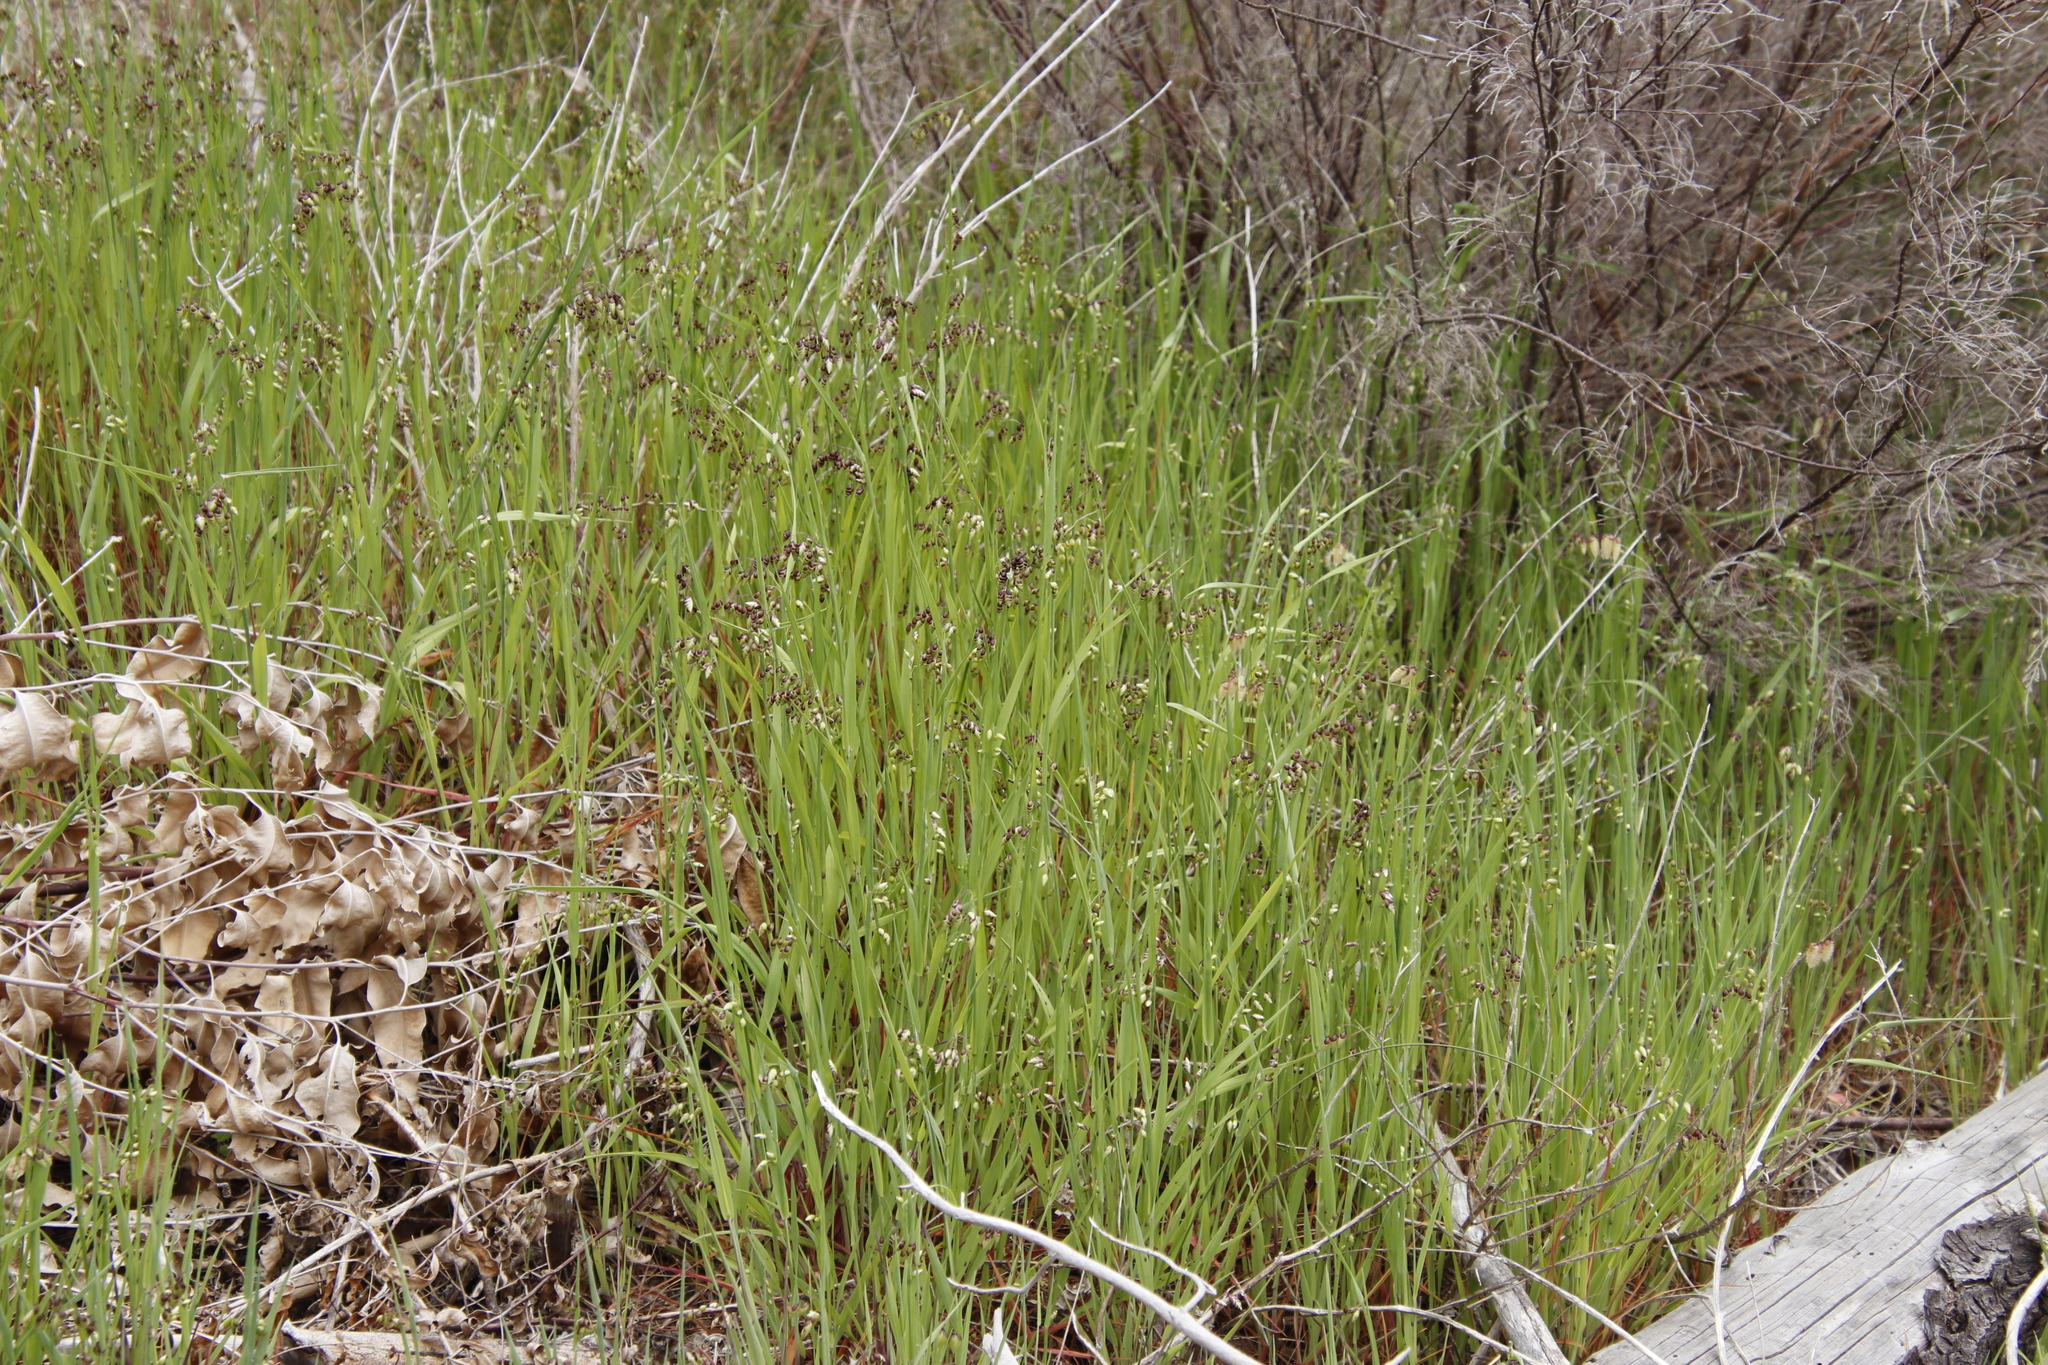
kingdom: Plantae
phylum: Tracheophyta
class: Liliopsida
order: Poales
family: Poaceae
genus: Briza
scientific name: Briza maxima
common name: Big quakinggrass
